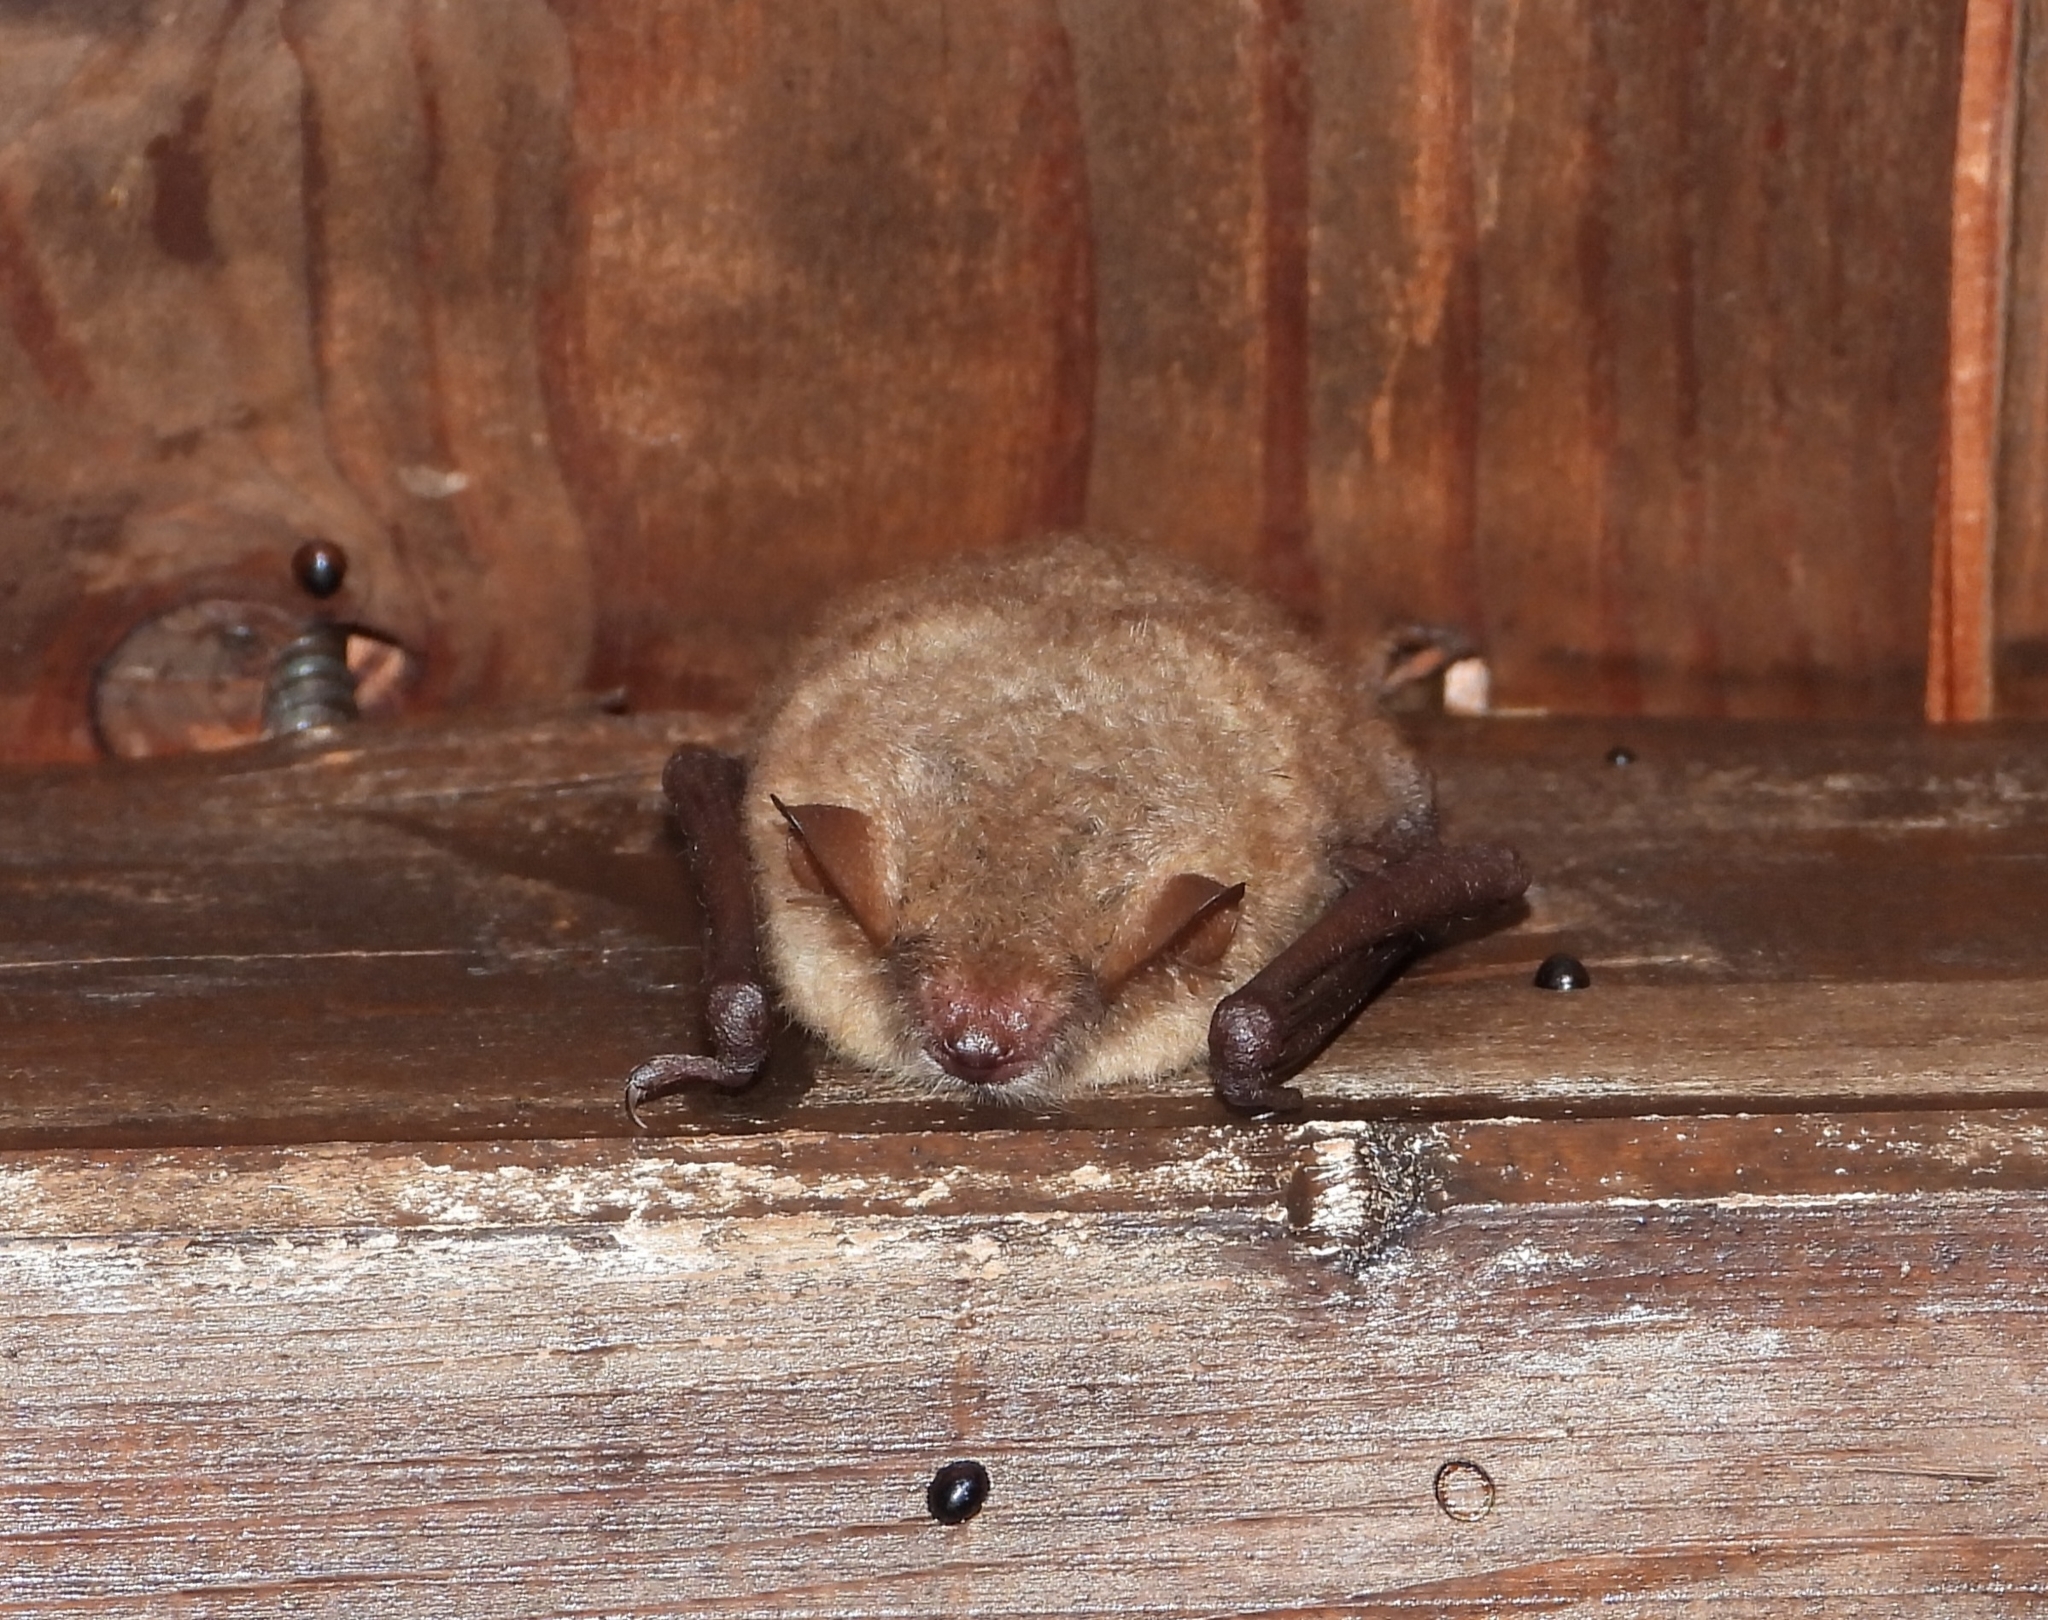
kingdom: Animalia
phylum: Chordata
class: Mammalia
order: Chiroptera
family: Vespertilionidae
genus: Myotis
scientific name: Myotis emarginatus
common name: Geoffroy's bat
